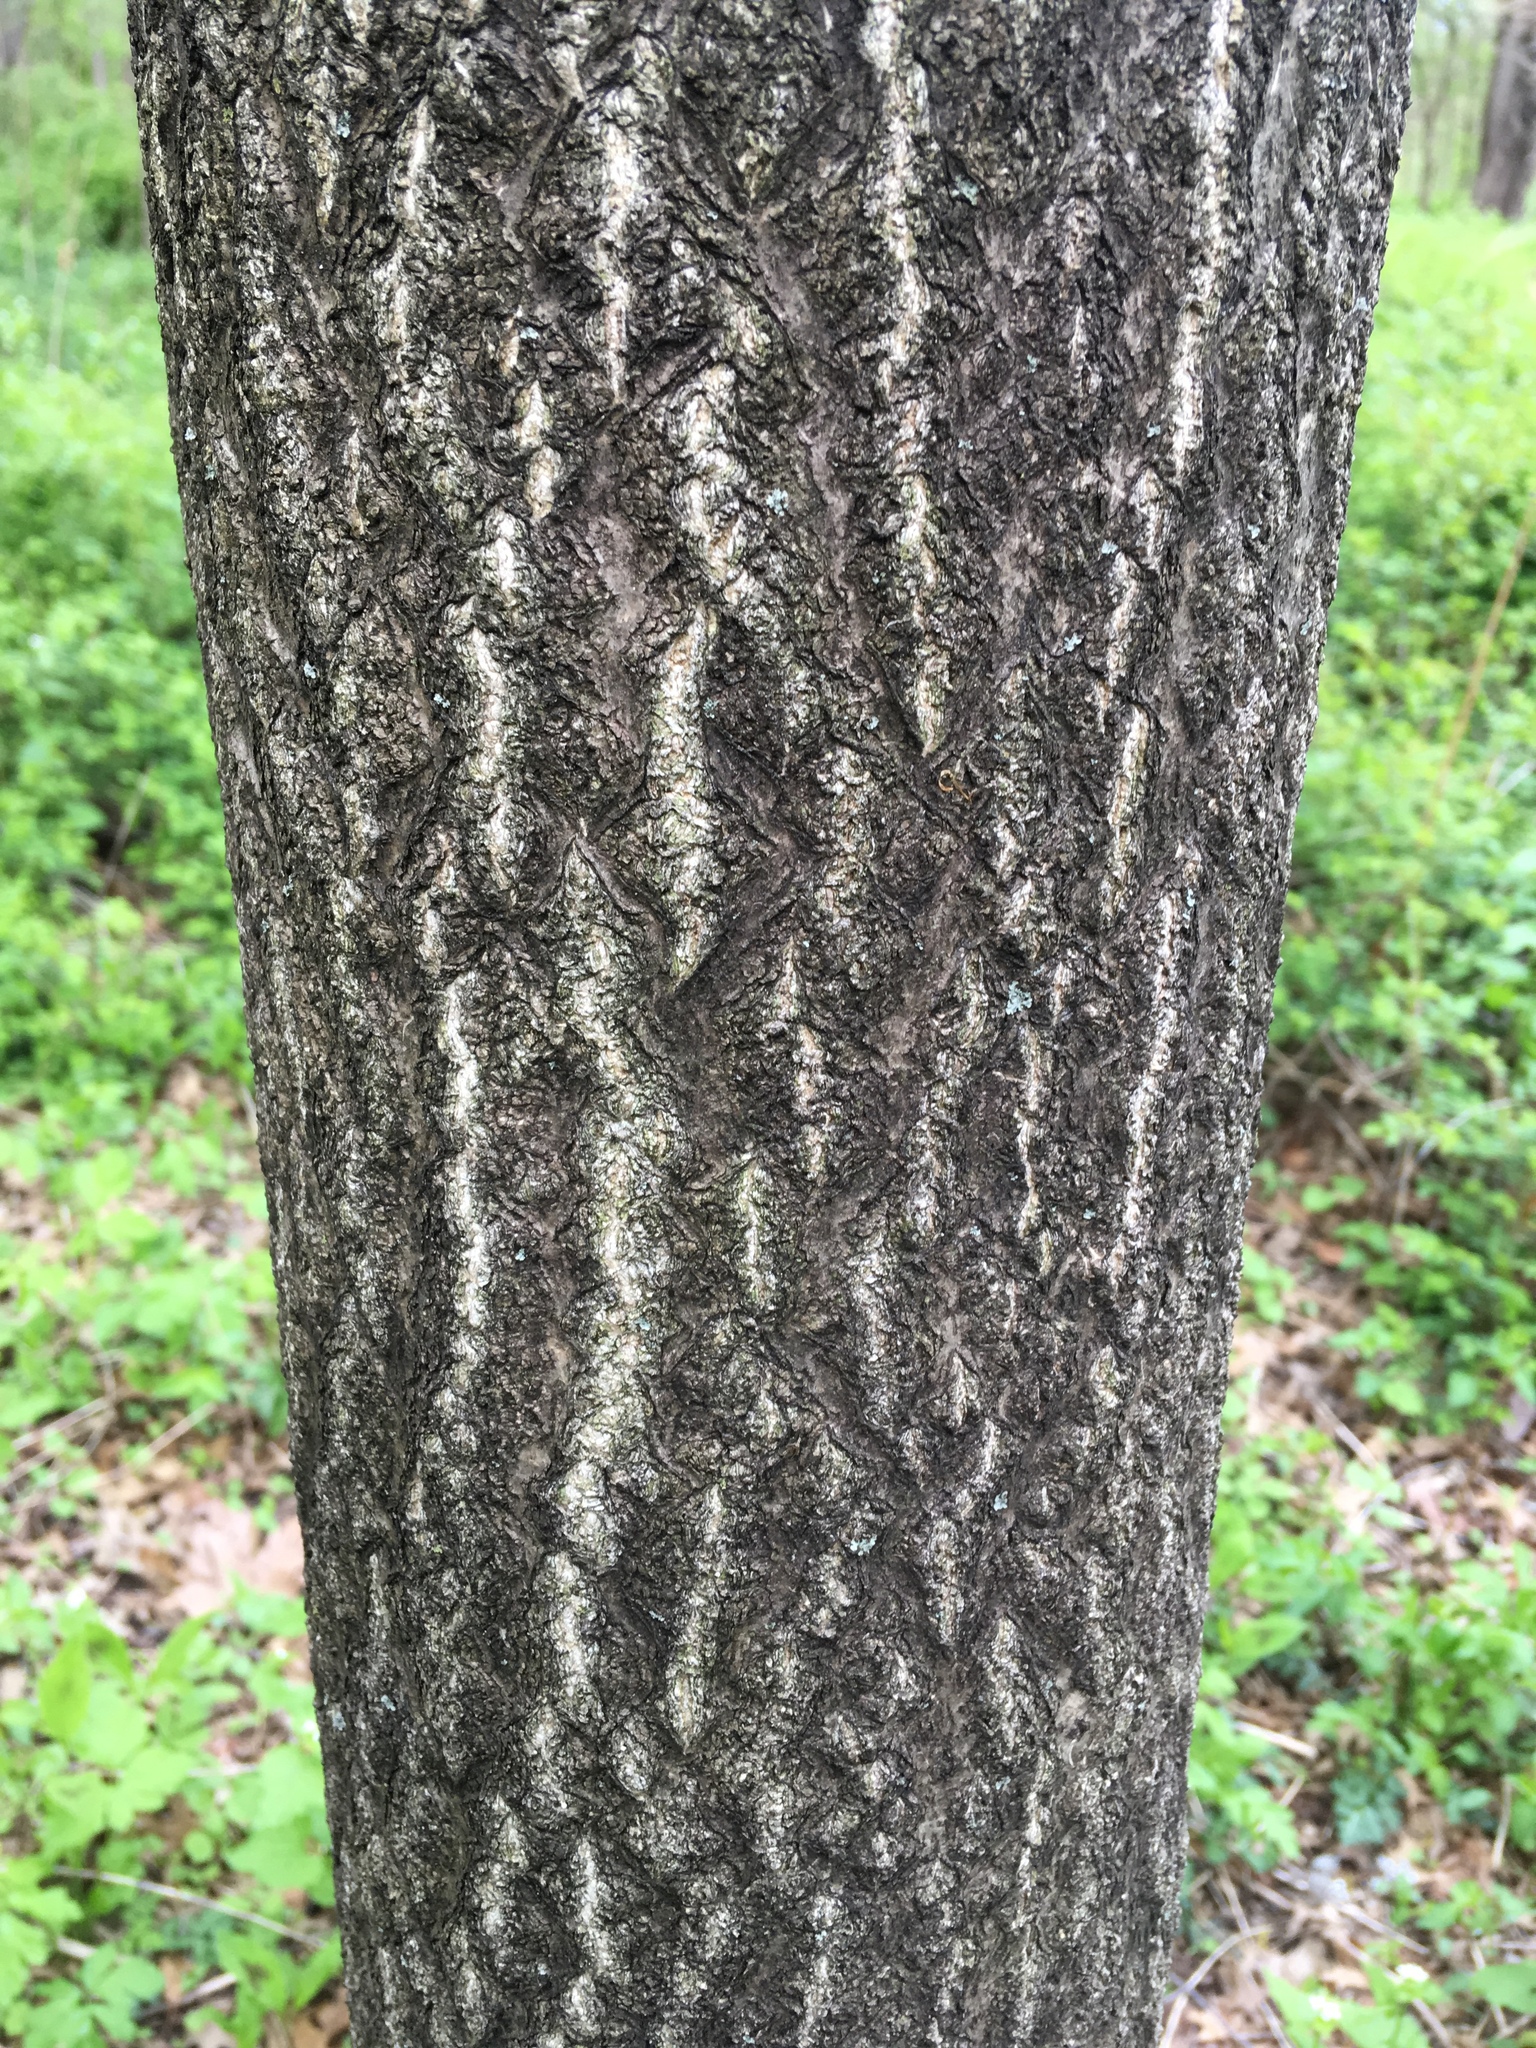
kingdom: Plantae
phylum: Tracheophyta
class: Magnoliopsida
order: Sapindales
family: Simaroubaceae
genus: Ailanthus
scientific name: Ailanthus altissima
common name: Tree-of-heaven
